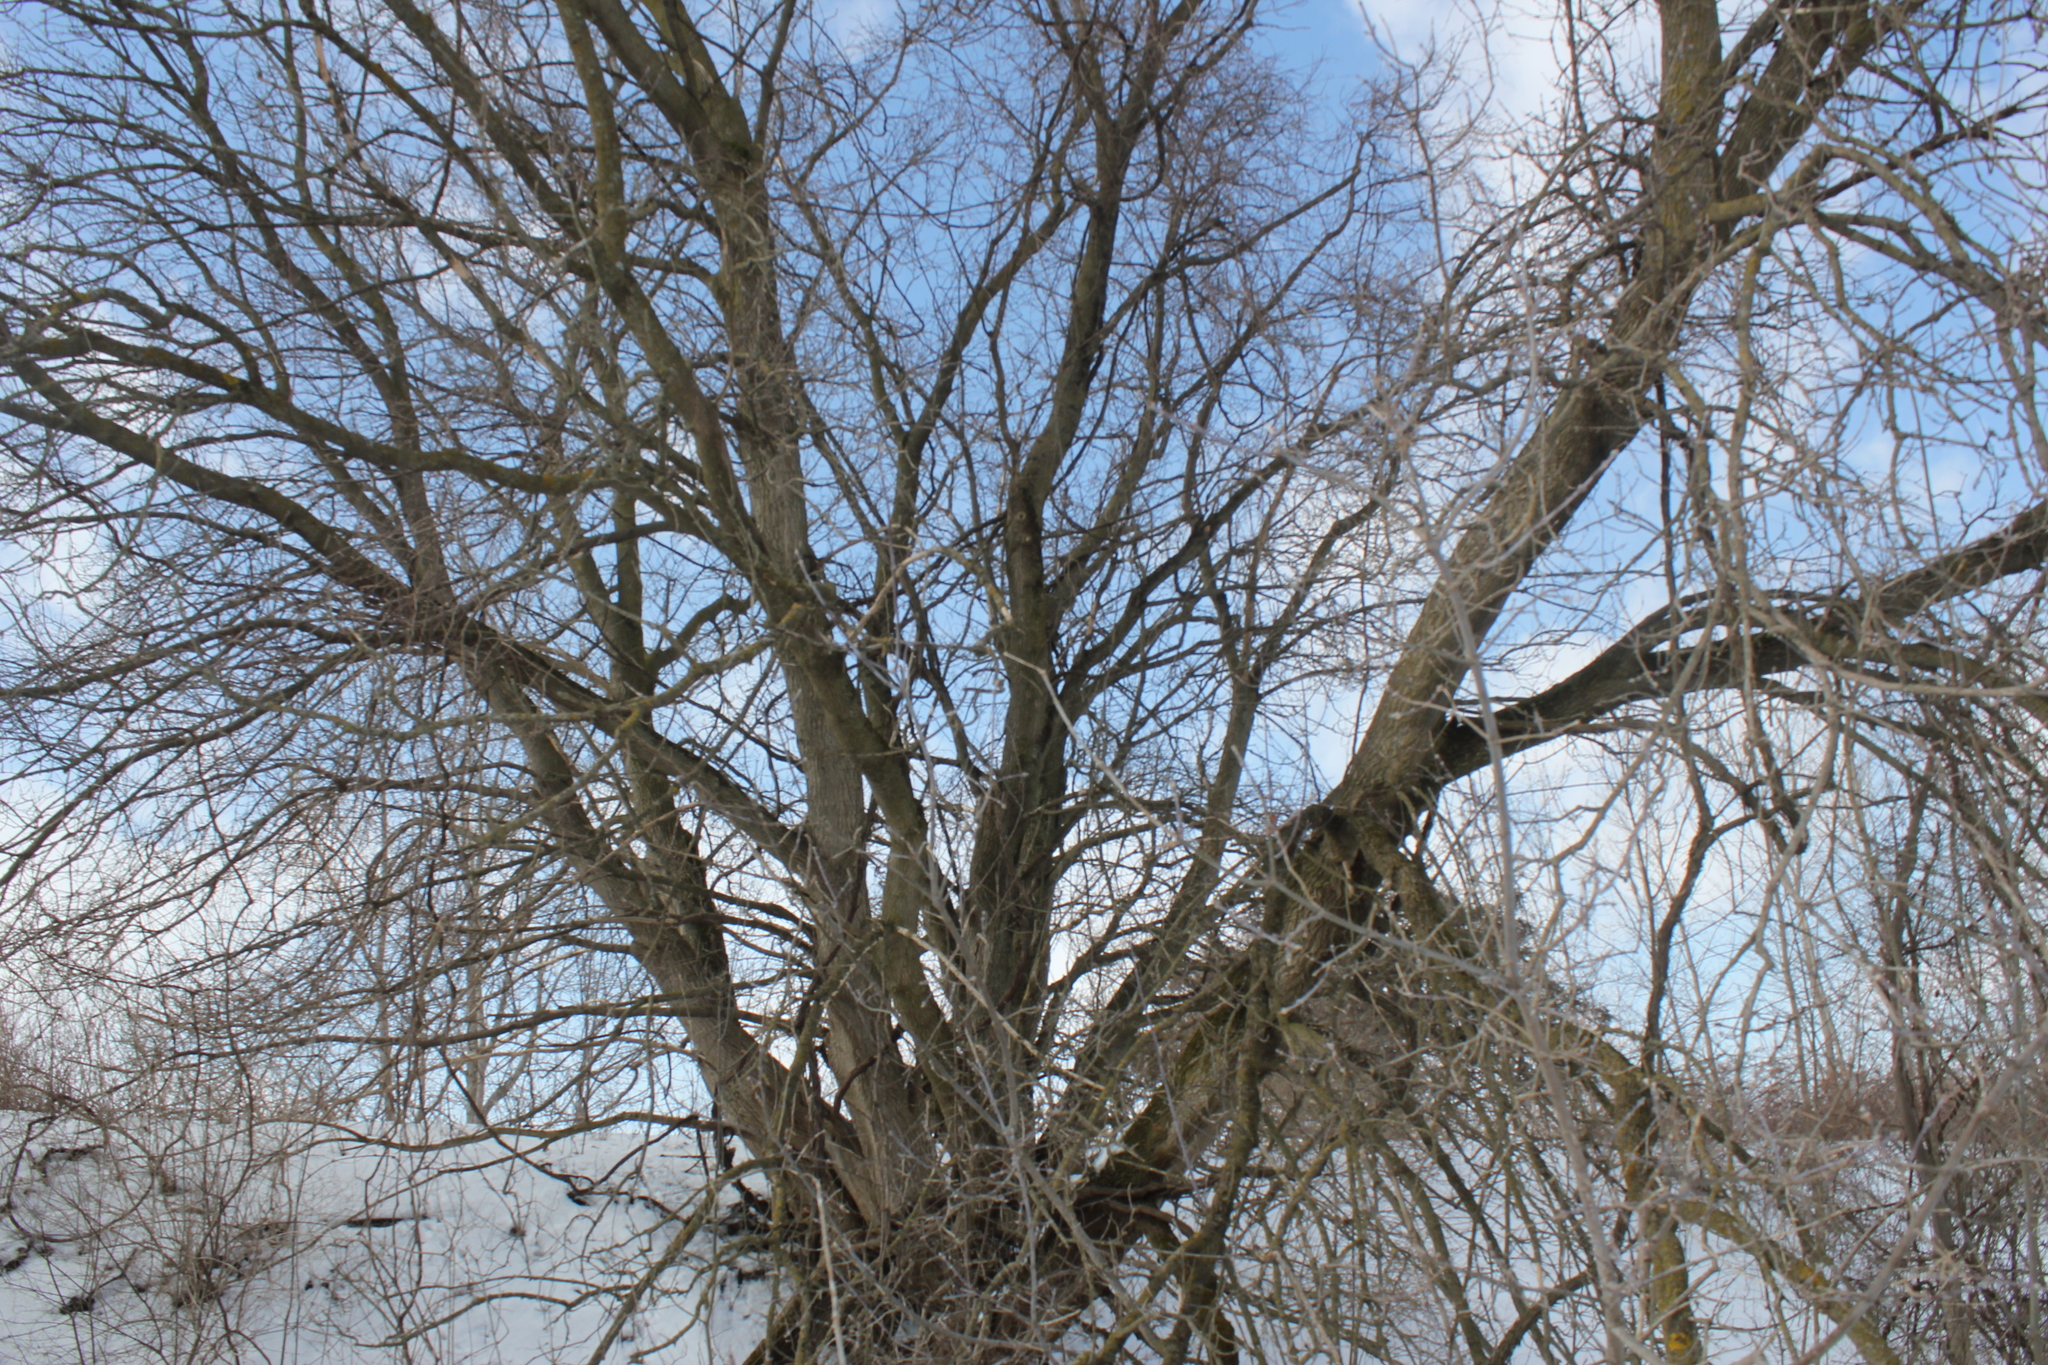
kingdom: Plantae
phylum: Tracheophyta
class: Magnoliopsida
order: Sapindales
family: Sapindaceae
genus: Acer
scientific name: Acer negundo
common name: Ashleaf maple
